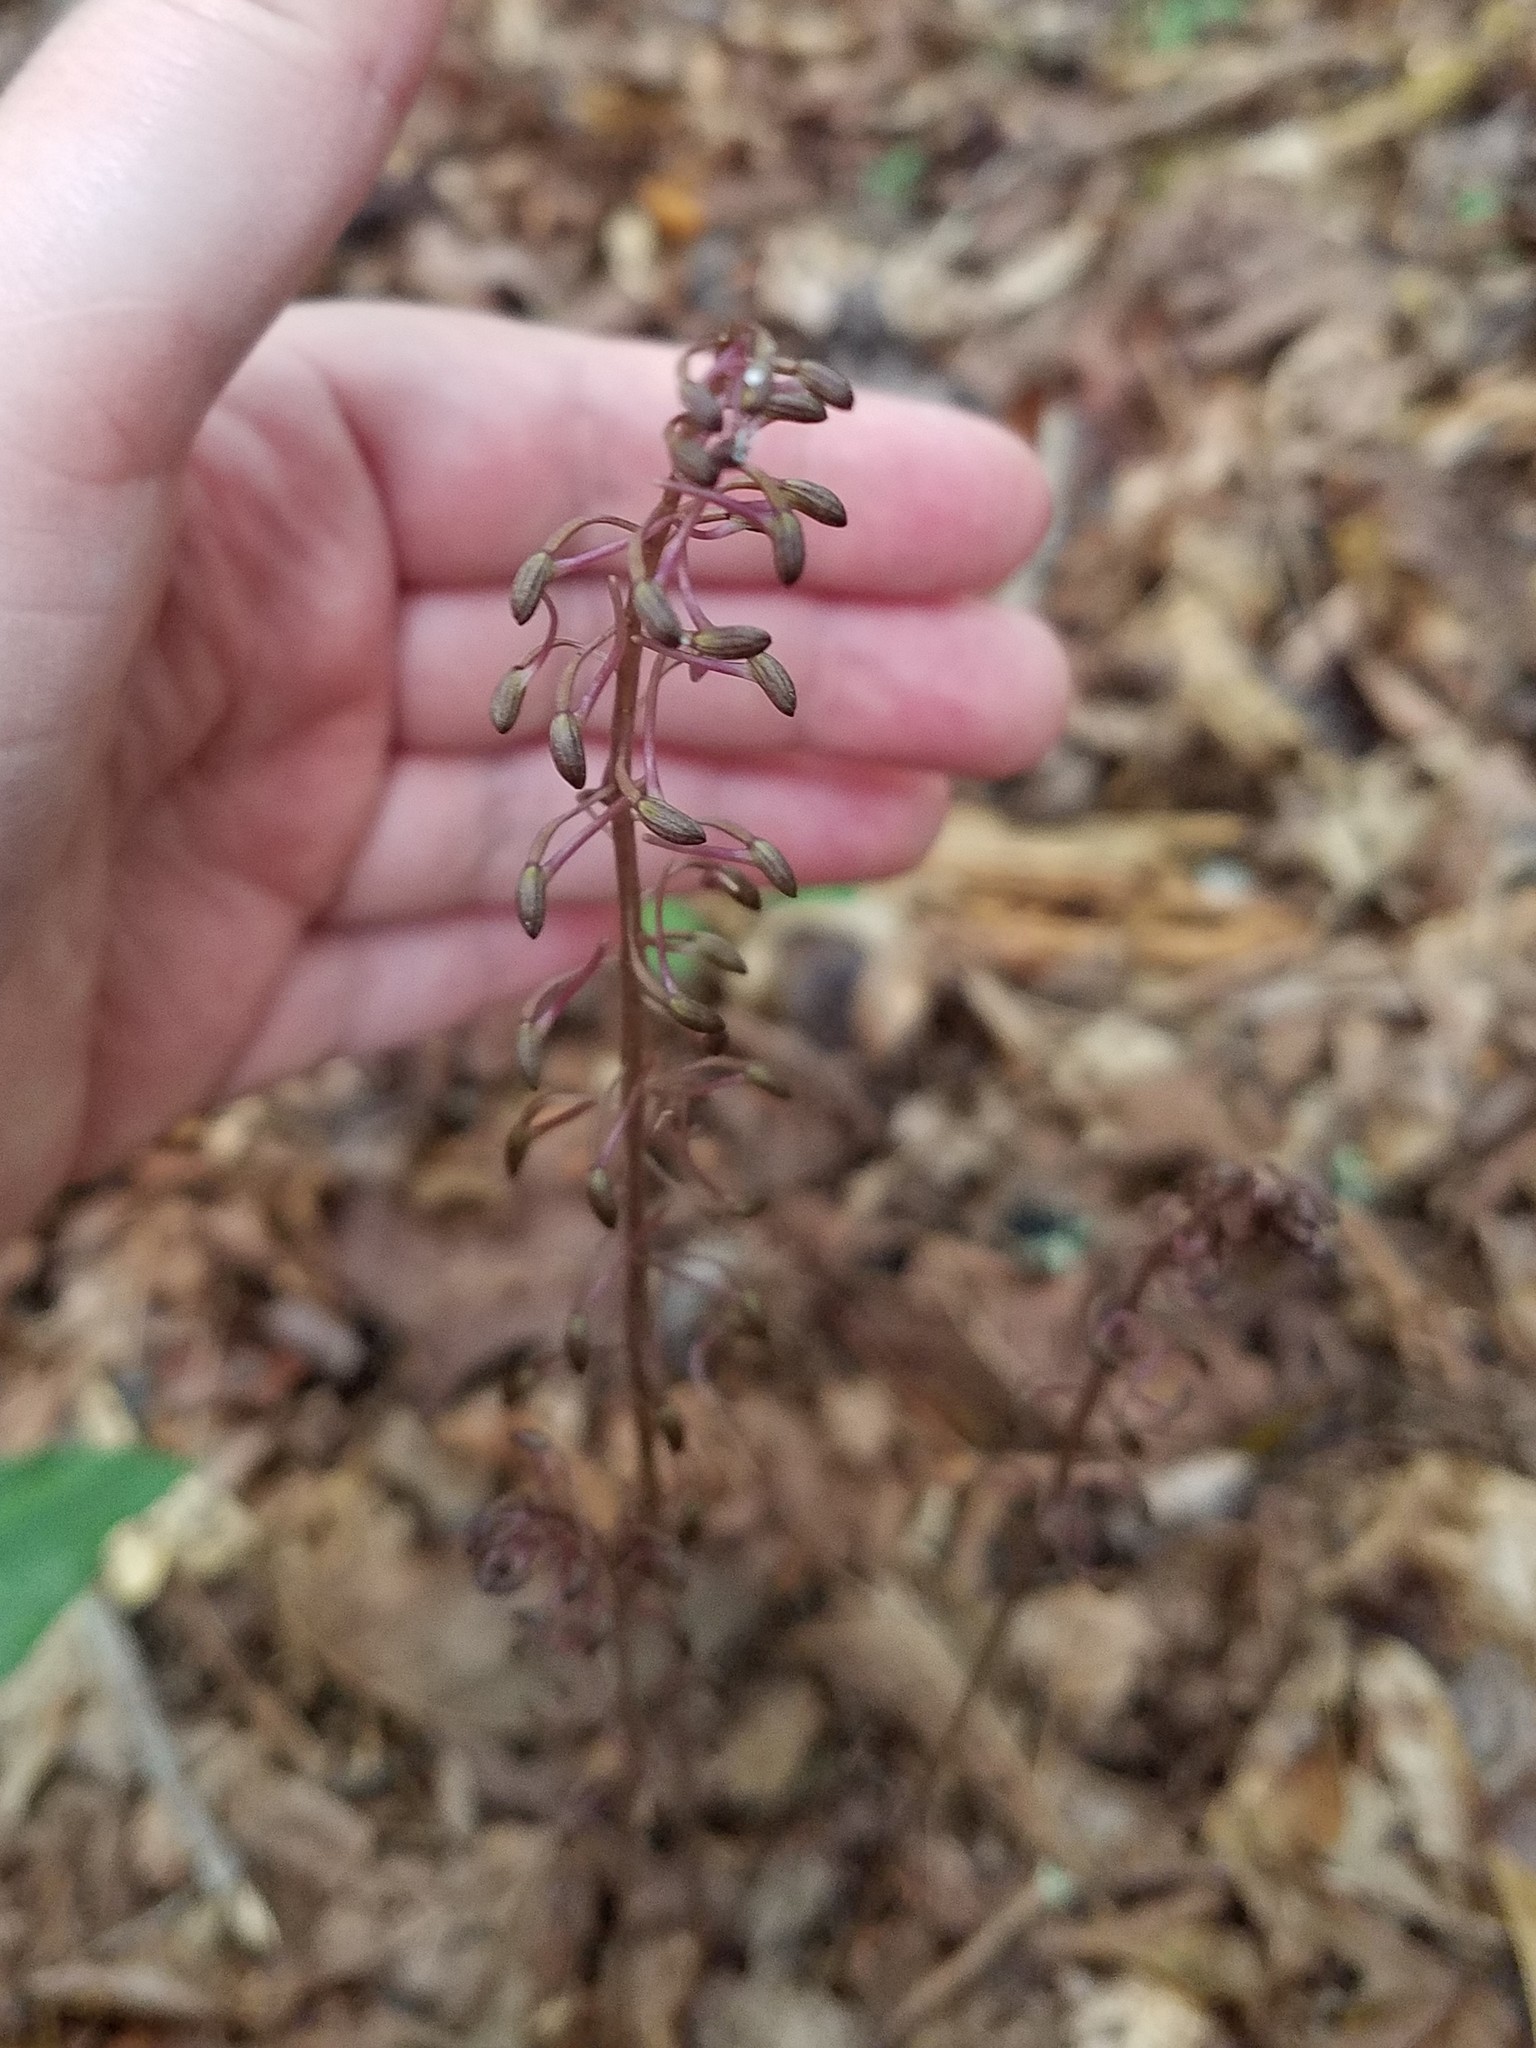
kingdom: Plantae
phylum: Tracheophyta
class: Liliopsida
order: Asparagales
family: Orchidaceae
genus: Tipularia
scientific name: Tipularia discolor
